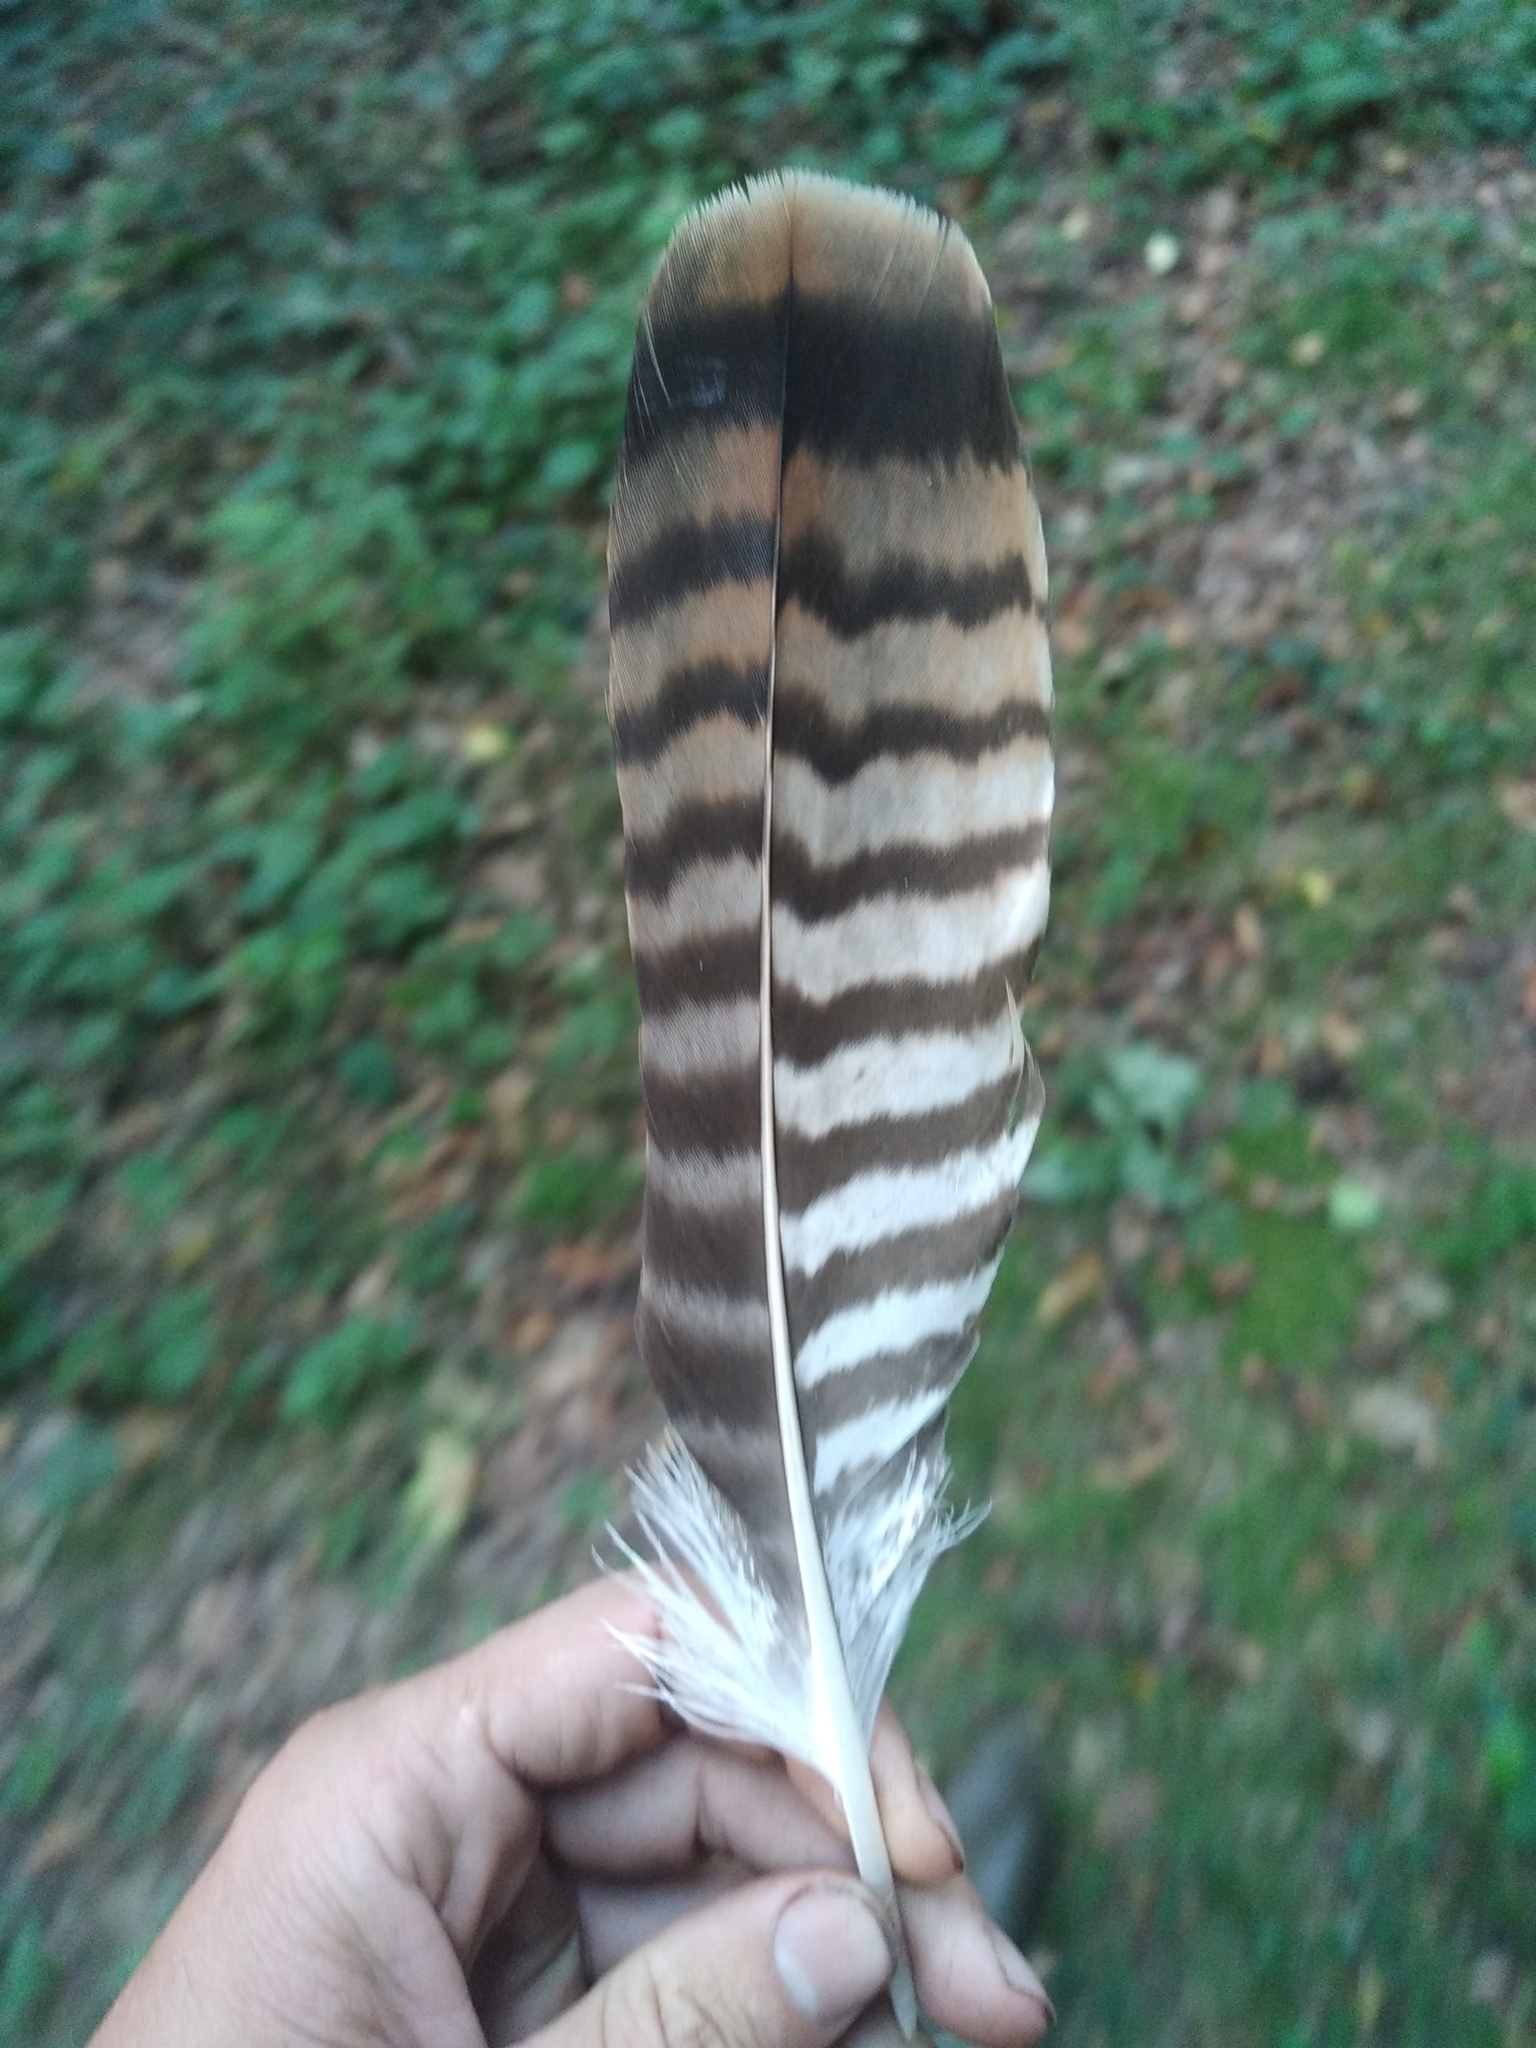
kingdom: Animalia
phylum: Chordata
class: Aves
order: Accipitriformes
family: Accipitridae
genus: Buteo
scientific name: Buteo buteo
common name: Common buzzard
